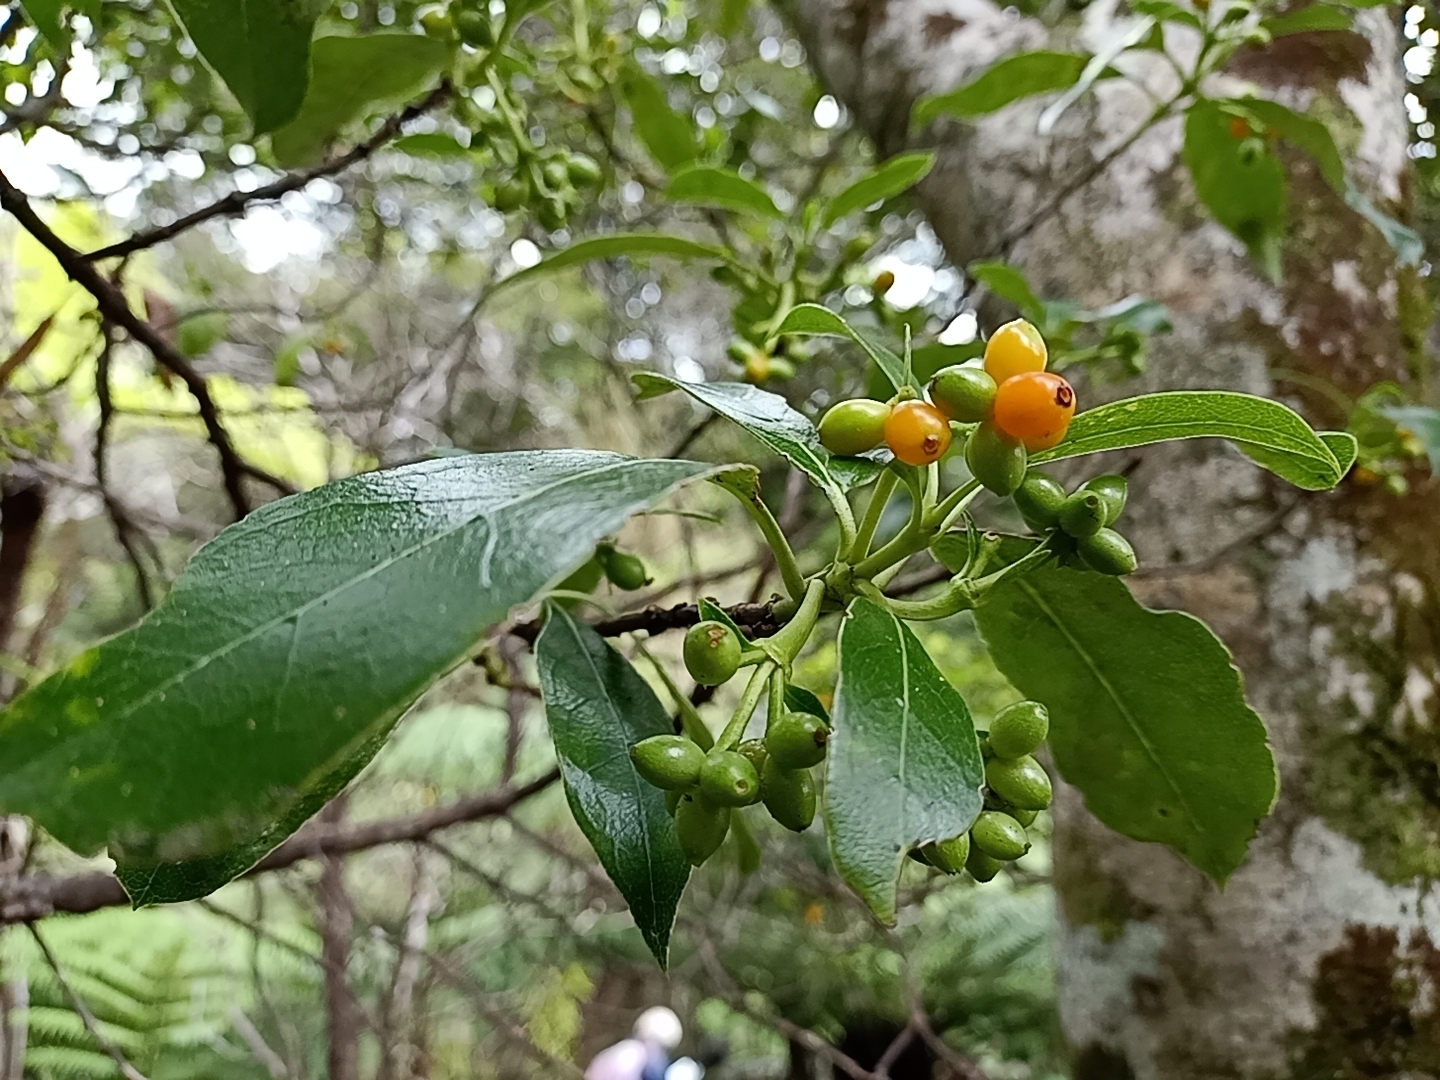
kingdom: Plantae
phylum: Tracheophyta
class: Magnoliopsida
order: Gentianales
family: Rubiaceae
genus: Coprosma
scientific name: Coprosma lucida
